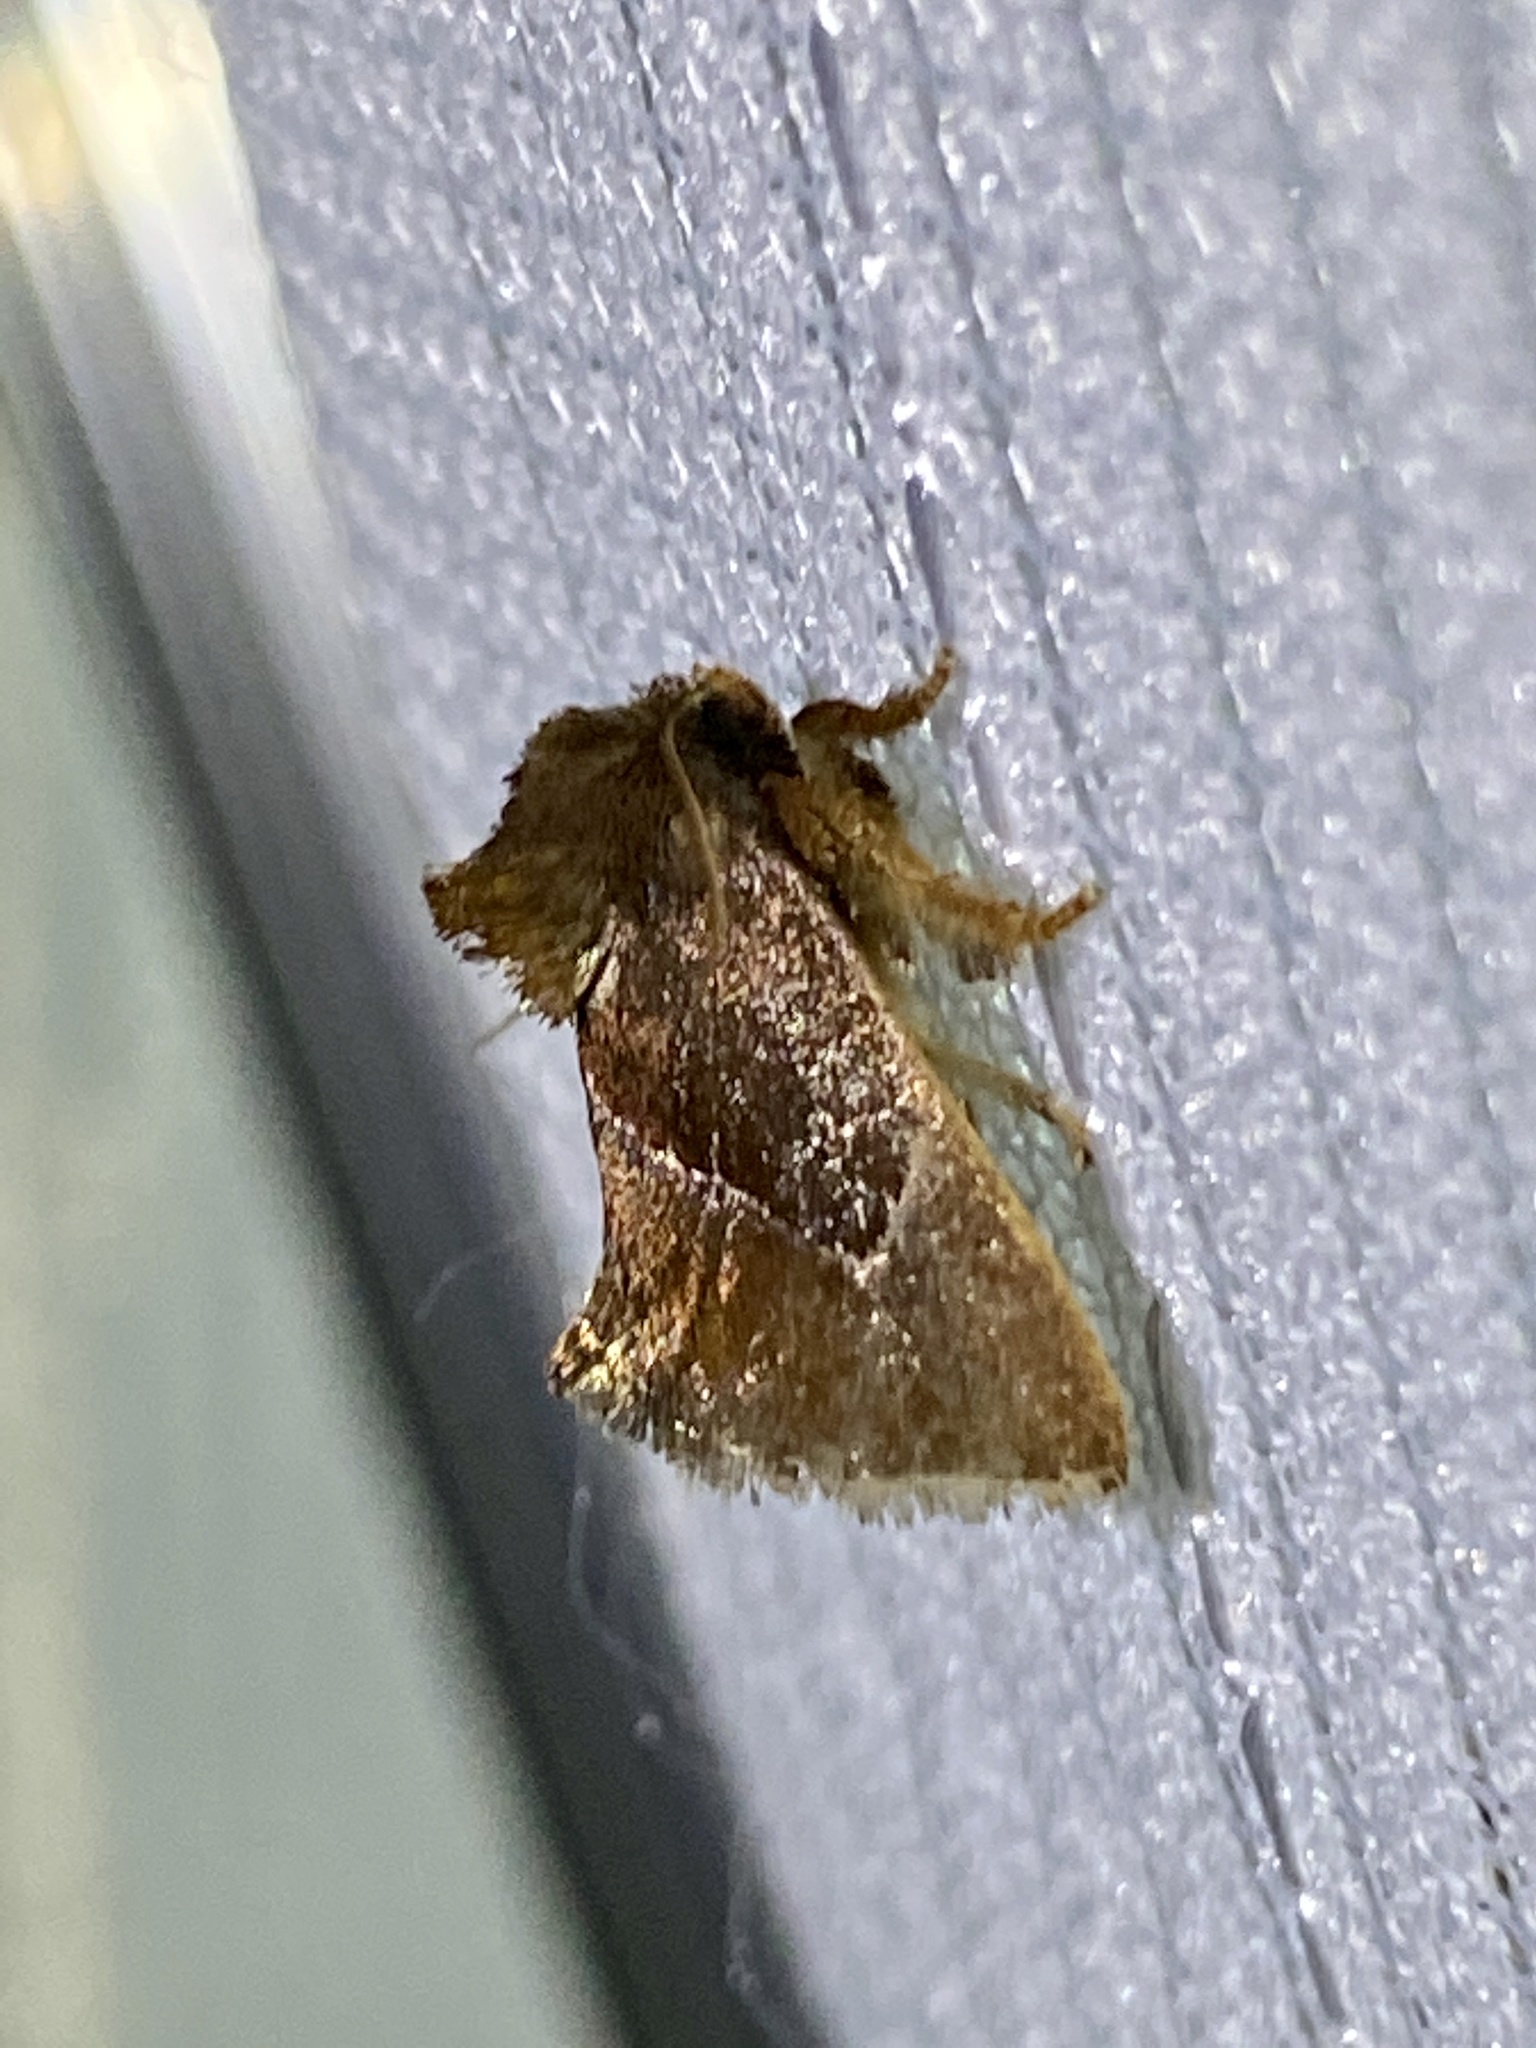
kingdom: Animalia
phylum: Arthropoda
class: Insecta
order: Lepidoptera
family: Limacodidae
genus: Phrixolepia
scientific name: Phrixolepia sericea
